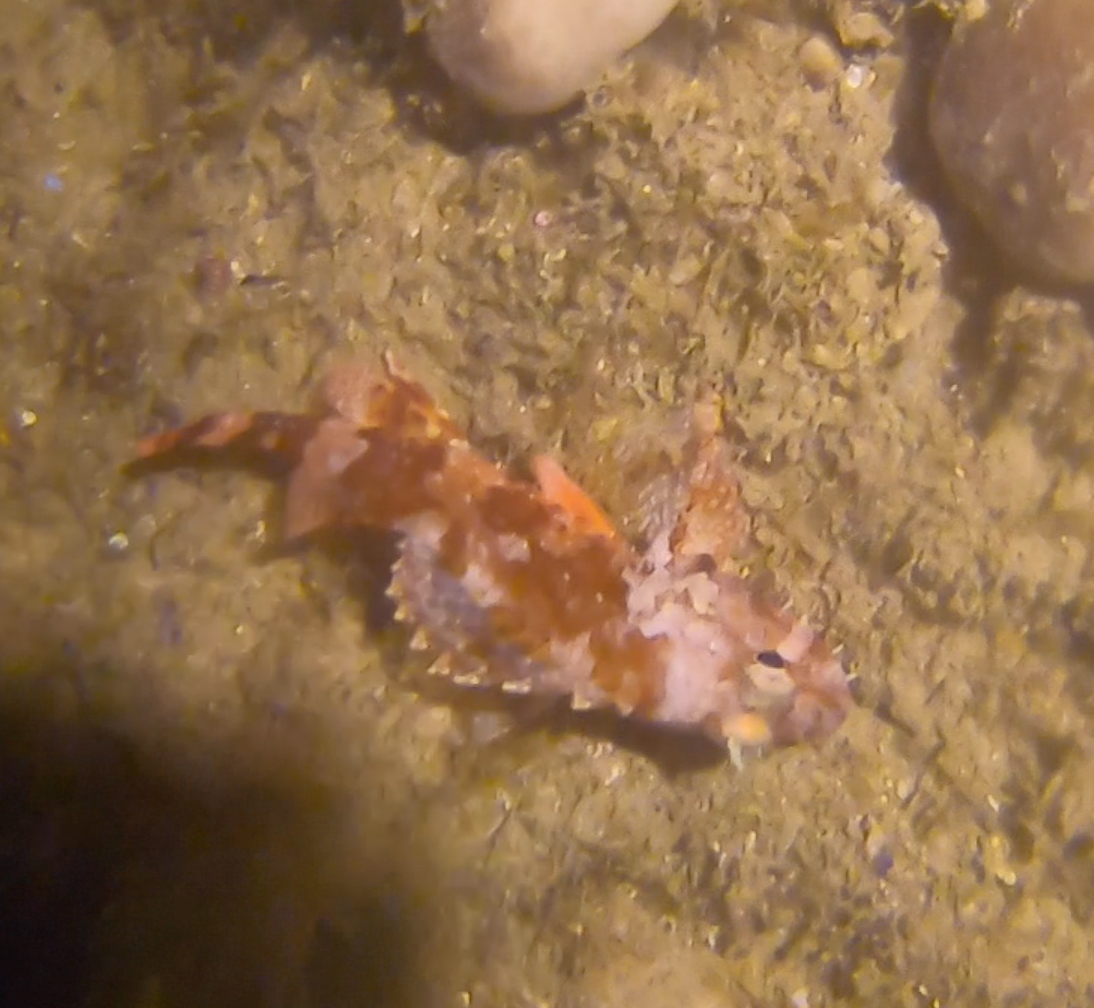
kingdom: Animalia
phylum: Chordata
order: Scorpaeniformes
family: Scorpaenidae
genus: Scorpaena
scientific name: Scorpaena maderensis
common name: Madeira rockfish
